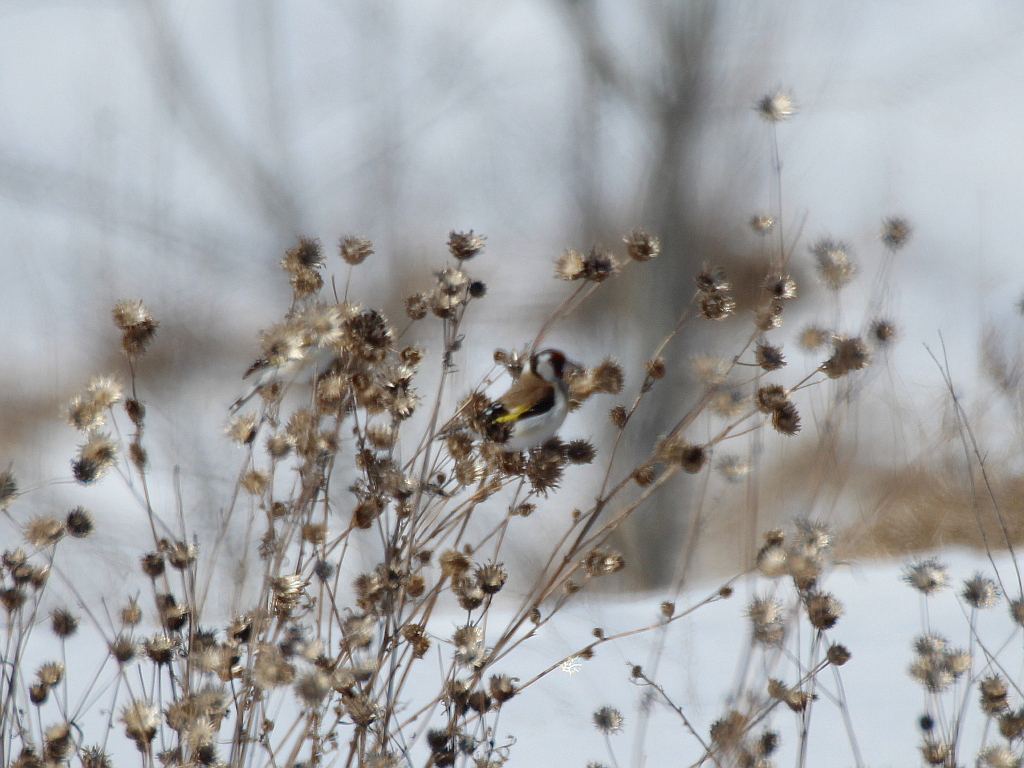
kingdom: Animalia
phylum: Chordata
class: Aves
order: Passeriformes
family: Fringillidae
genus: Carduelis
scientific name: Carduelis carduelis
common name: European goldfinch
